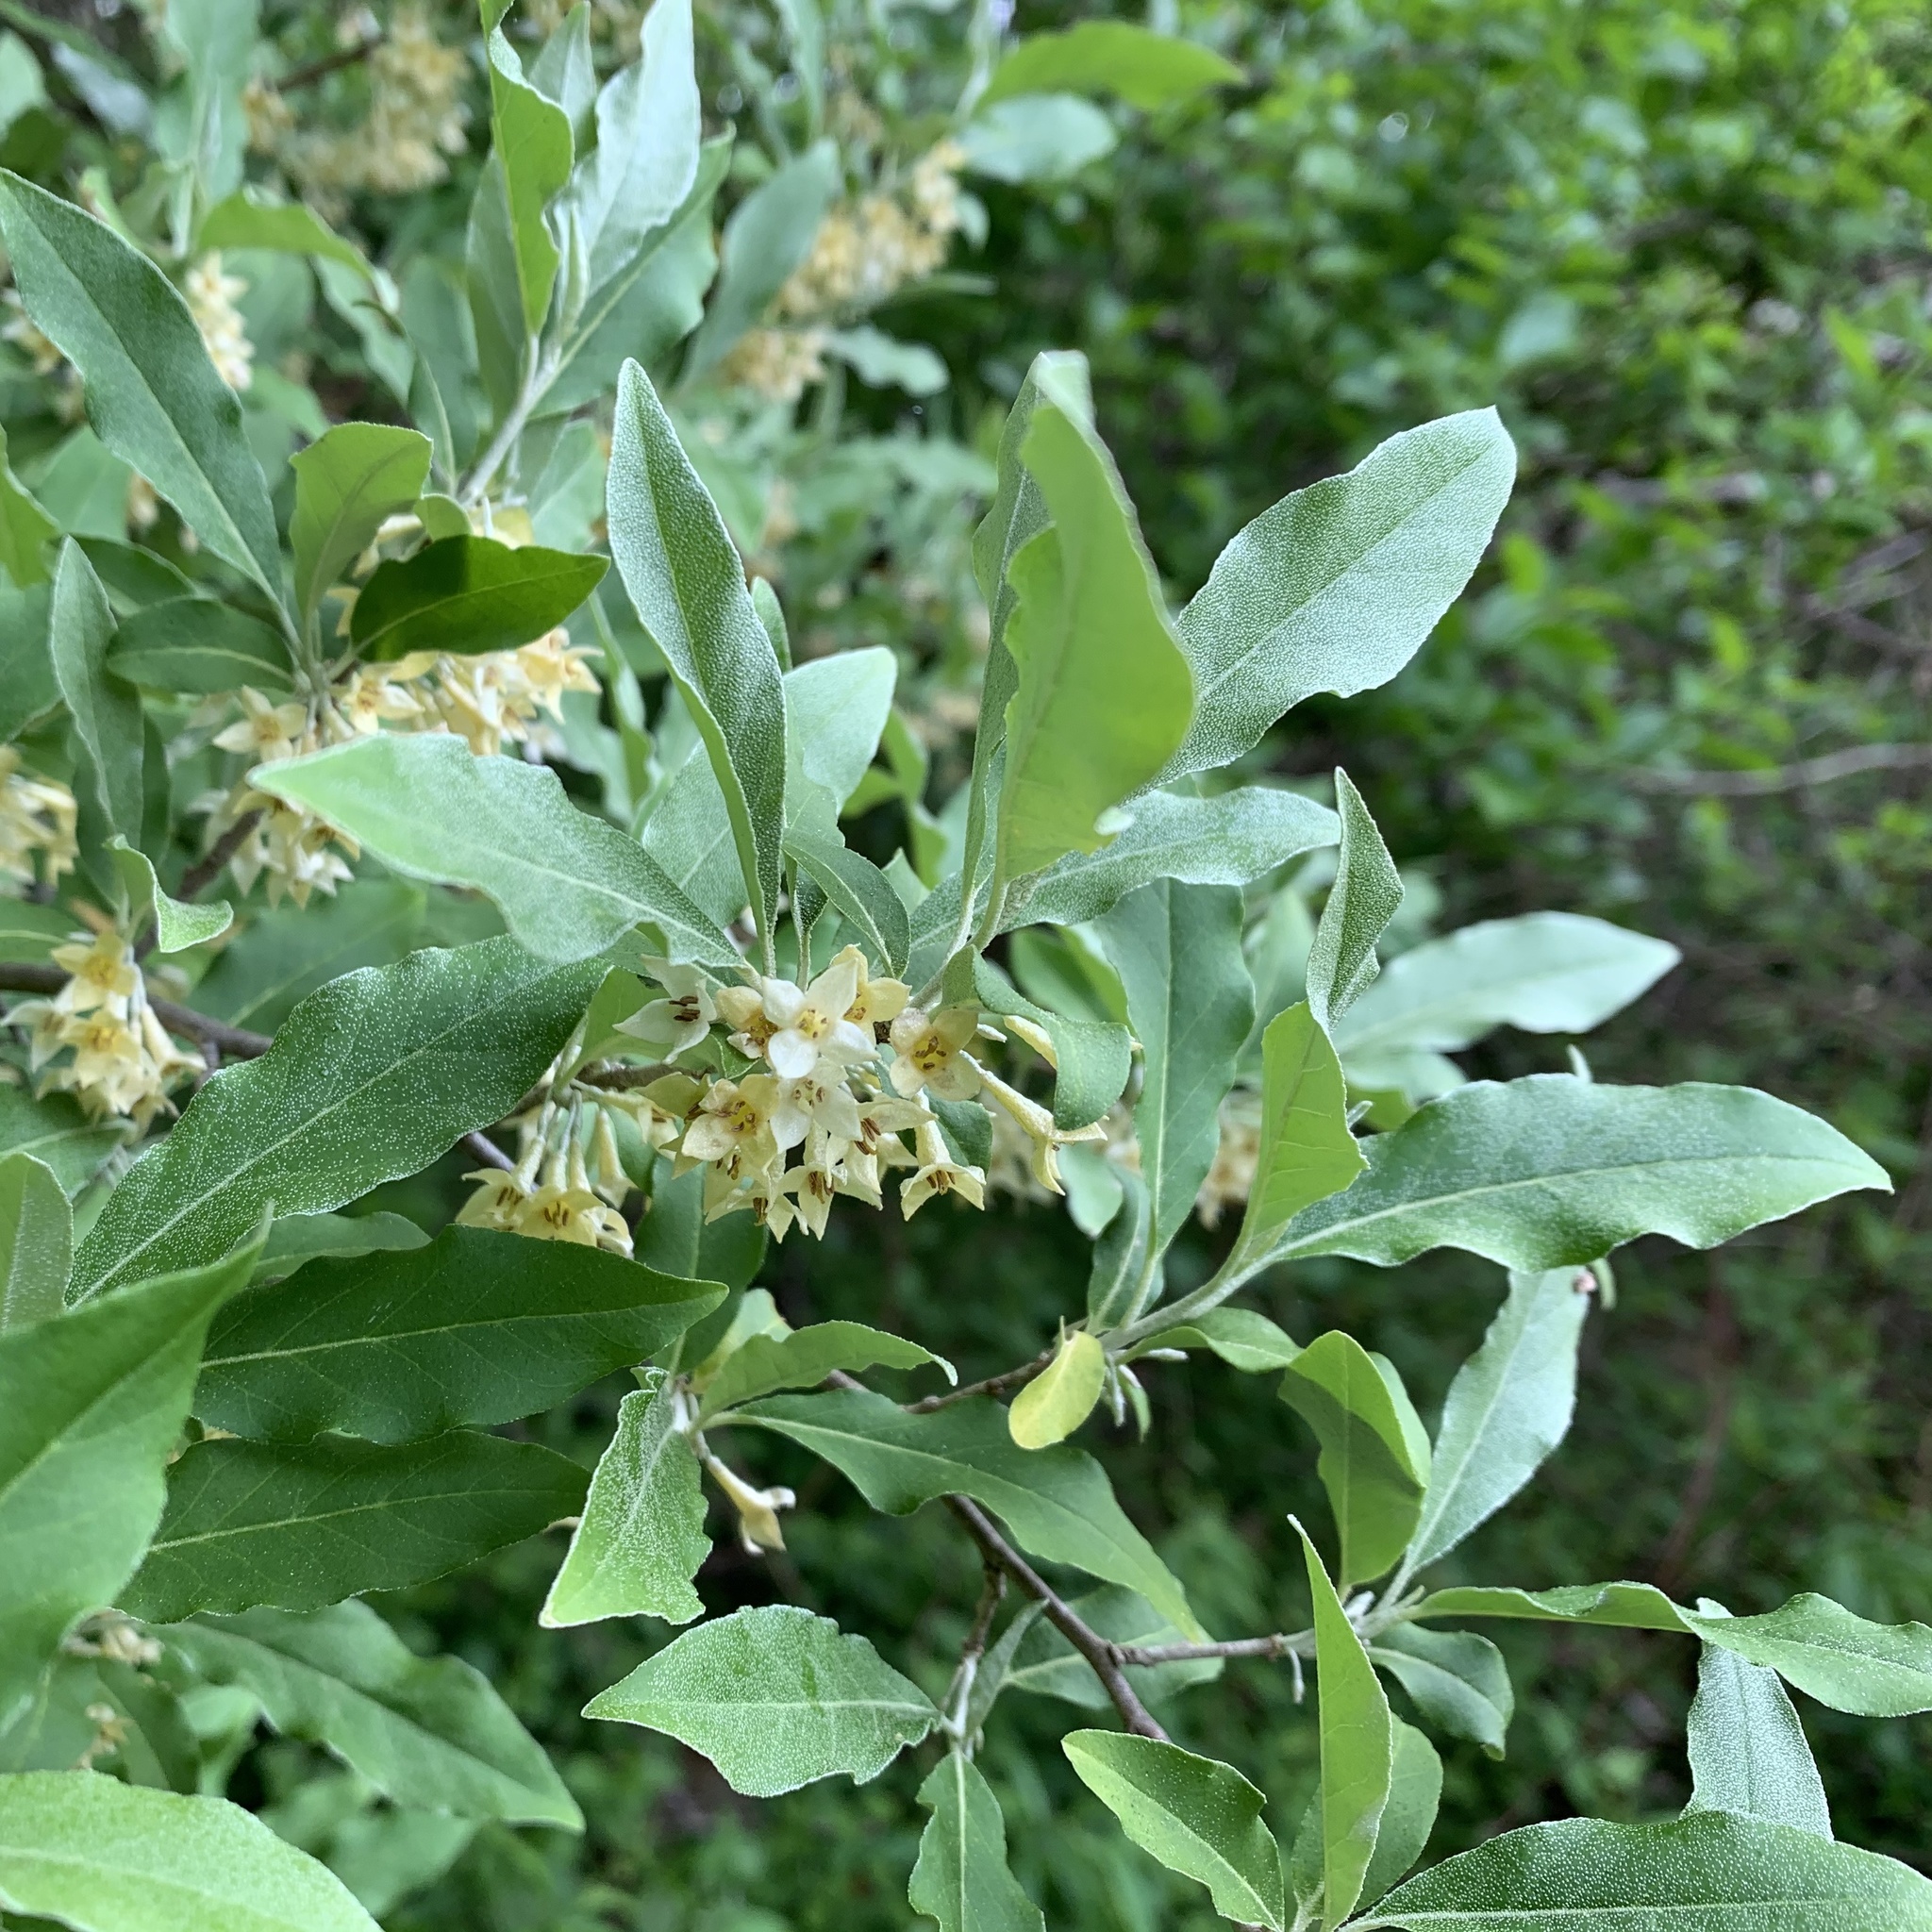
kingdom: Plantae
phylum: Tracheophyta
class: Magnoliopsida
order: Rosales
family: Elaeagnaceae
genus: Elaeagnus
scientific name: Elaeagnus umbellata
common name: Autumn olive
